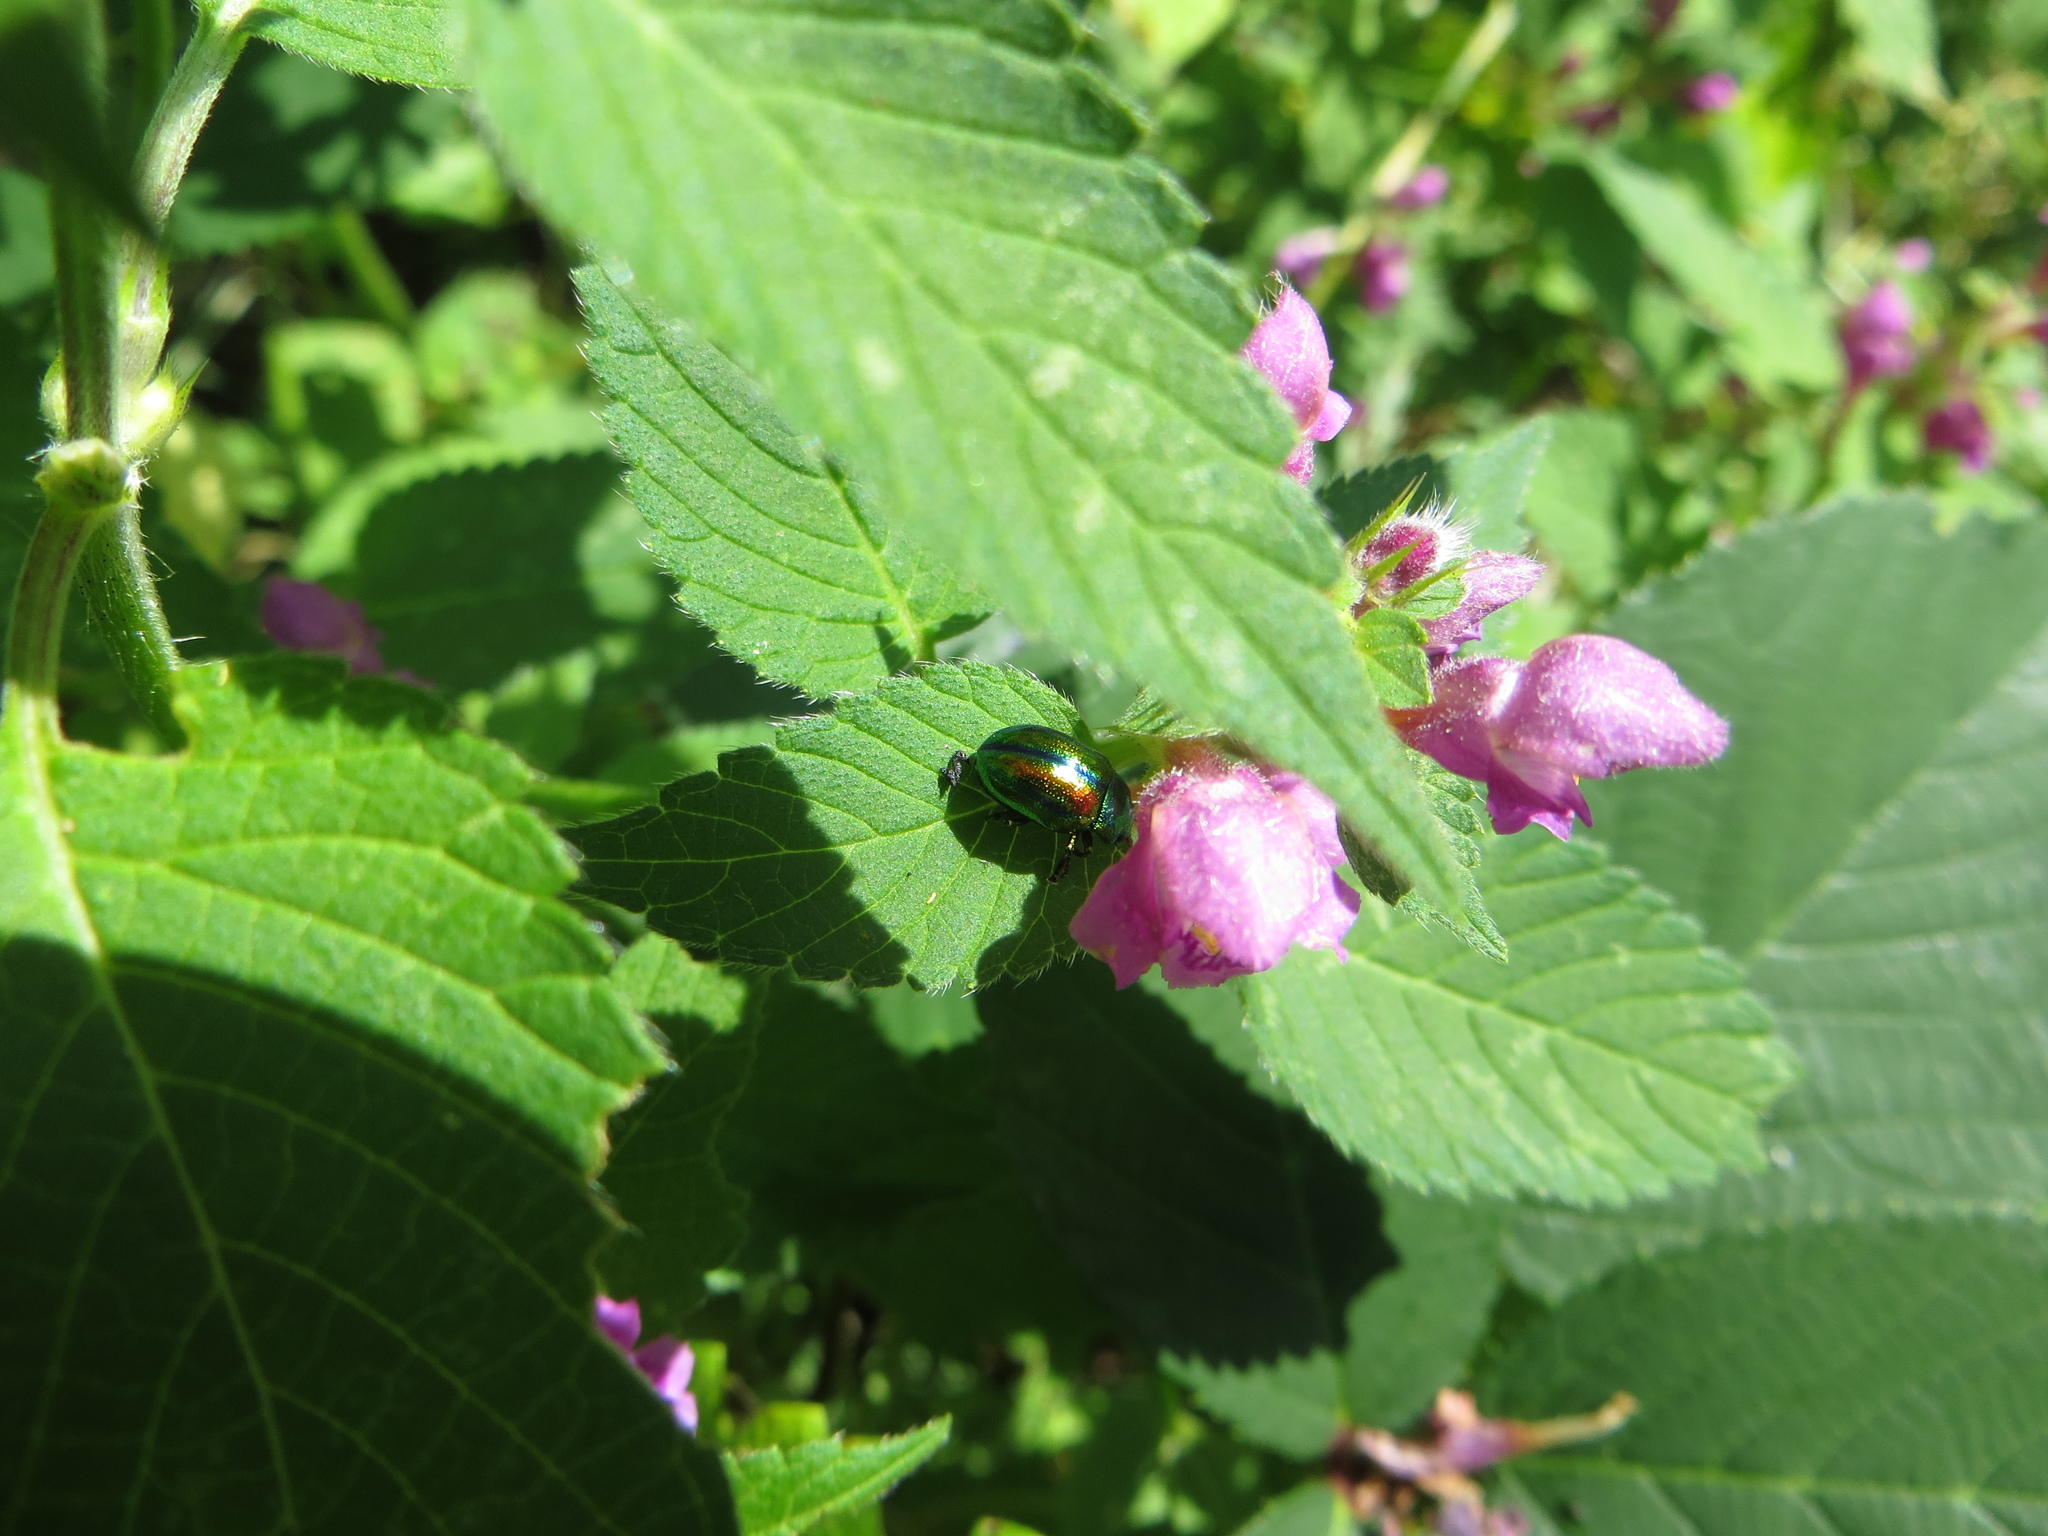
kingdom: Animalia
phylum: Arthropoda
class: Insecta
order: Coleoptera
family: Chrysomelidae
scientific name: Chrysomelidae
